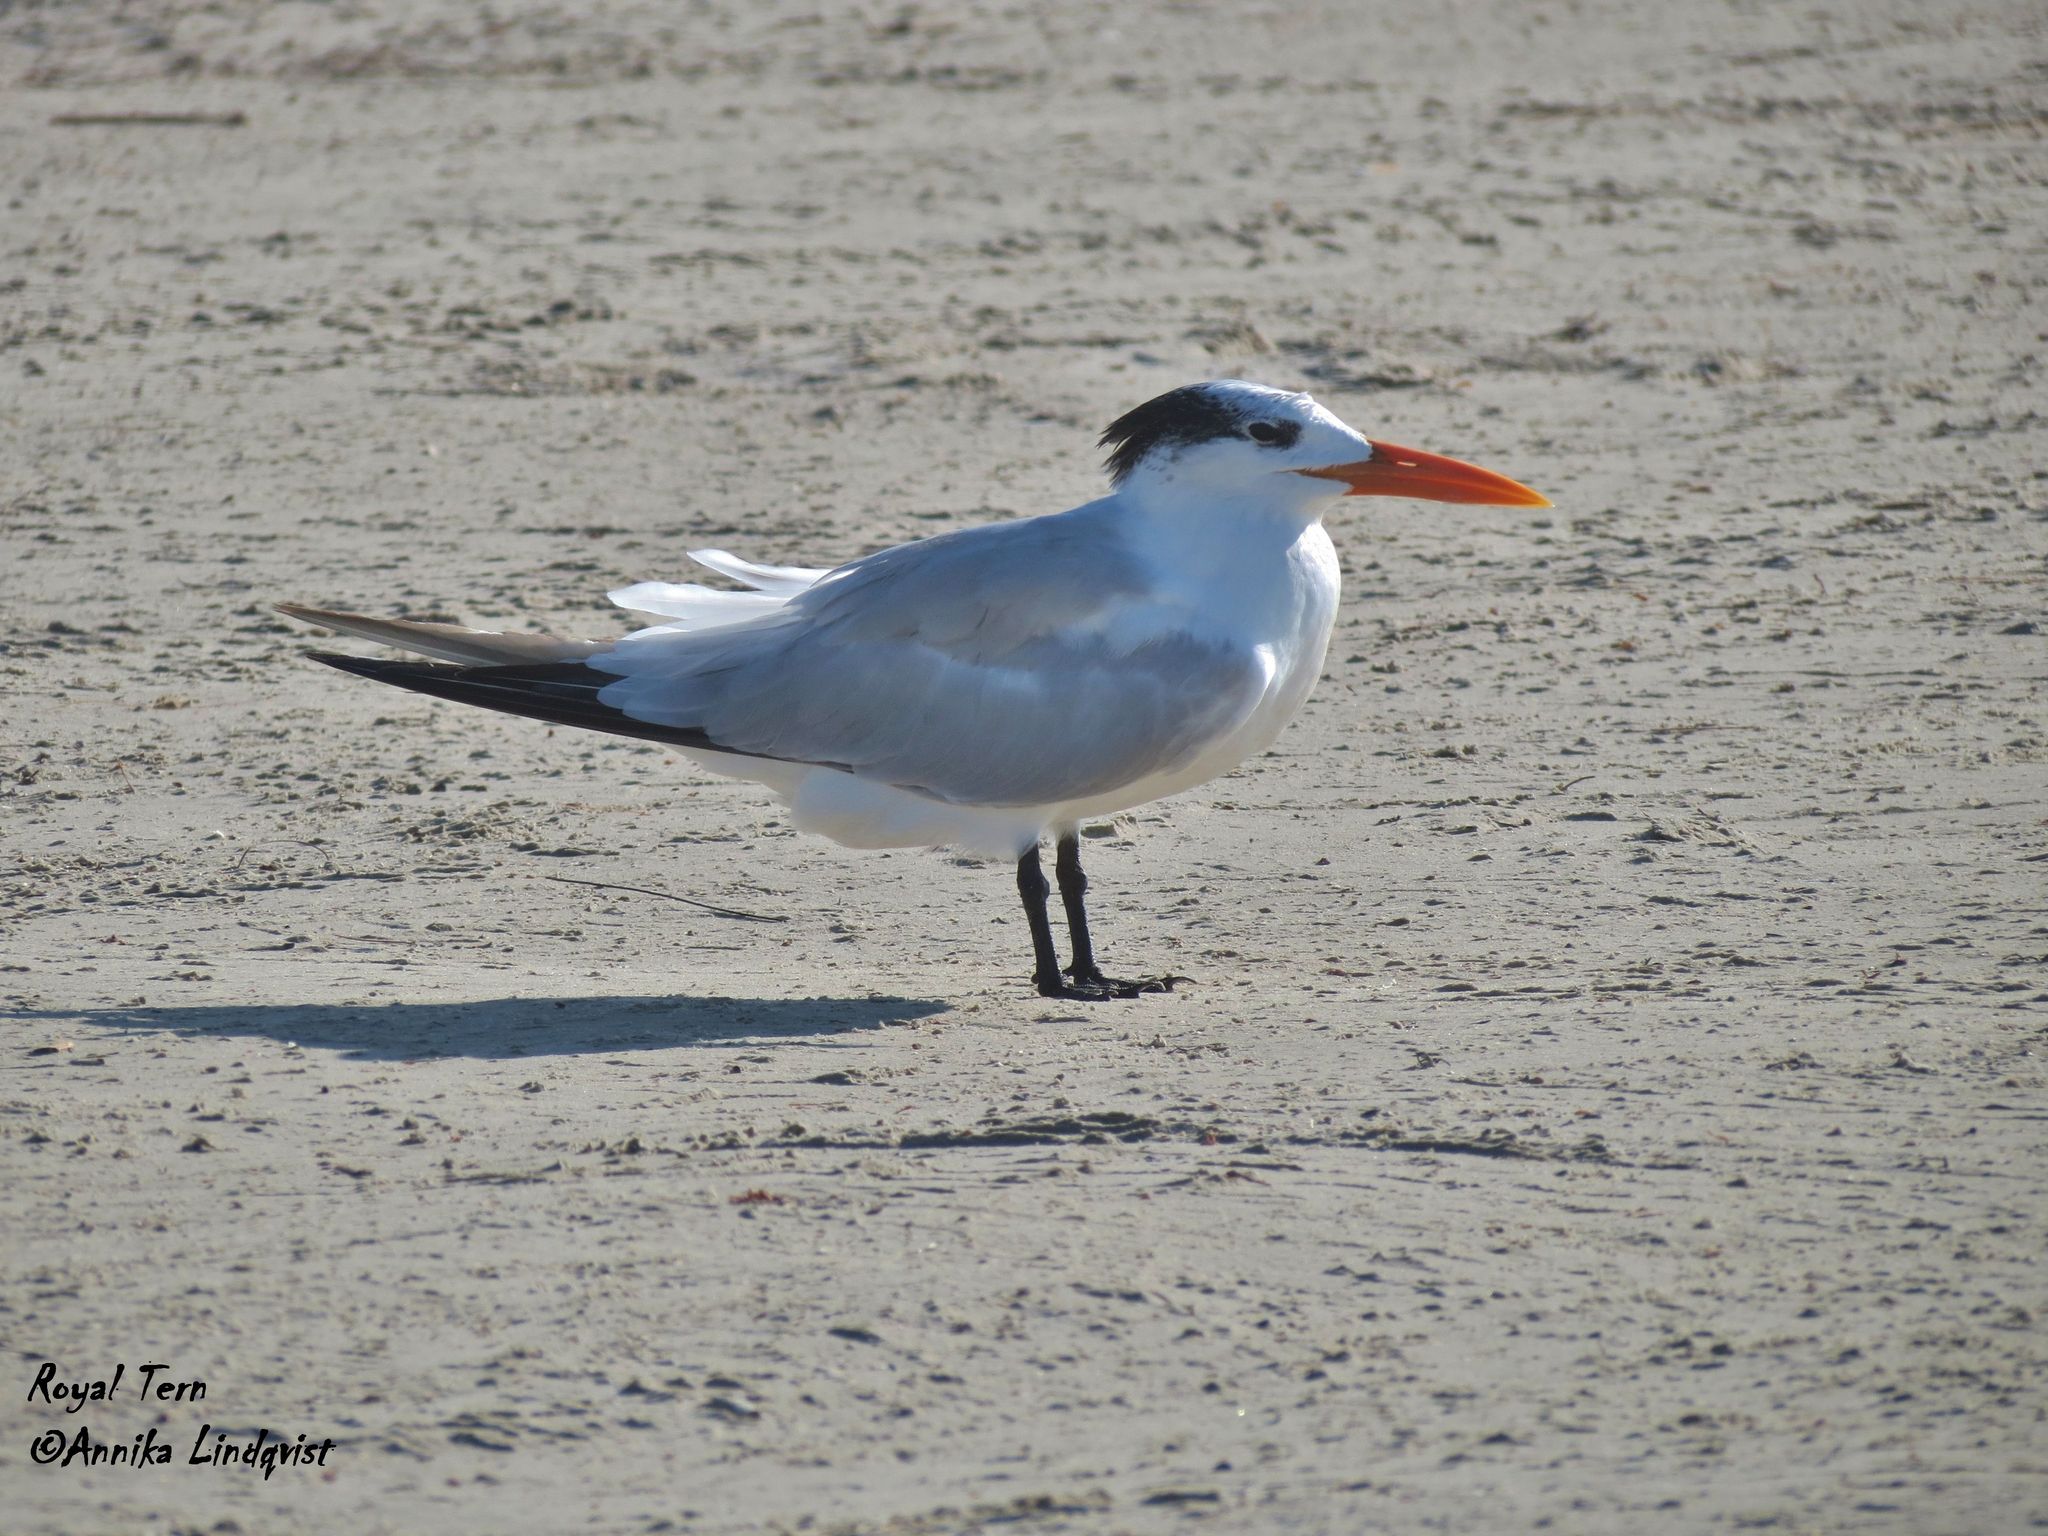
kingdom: Animalia
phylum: Chordata
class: Aves
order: Charadriiformes
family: Laridae
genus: Thalasseus
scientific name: Thalasseus maximus
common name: Royal tern
